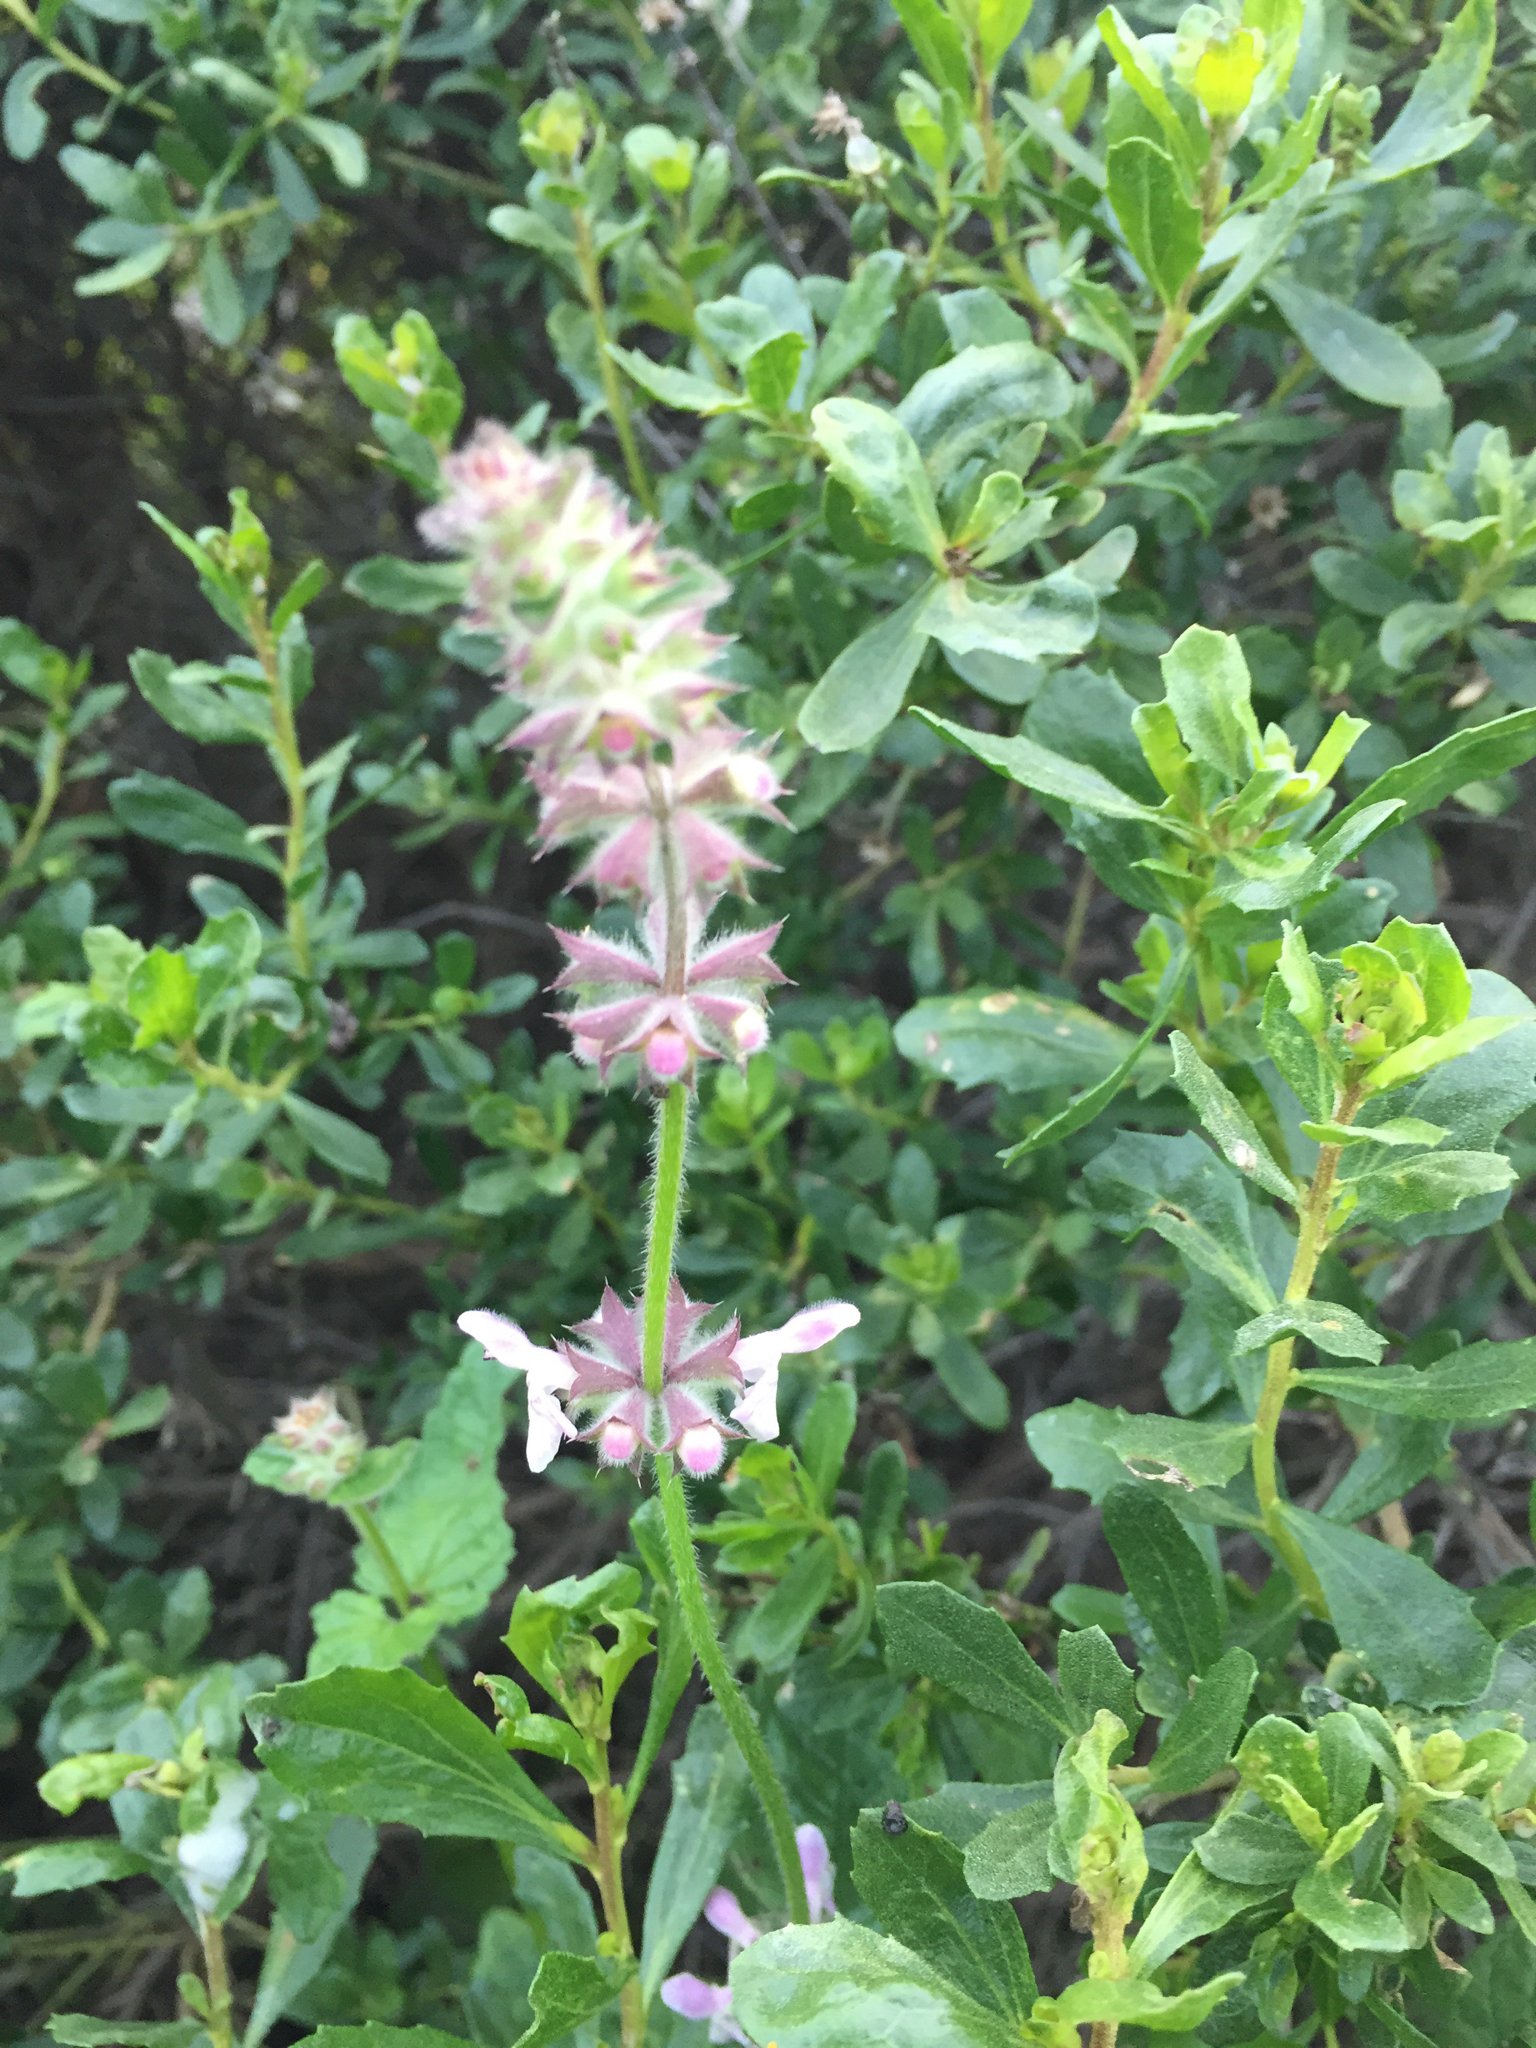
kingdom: Plantae
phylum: Tracheophyta
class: Magnoliopsida
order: Lamiales
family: Lamiaceae
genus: Stachys
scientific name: Stachys rigida
